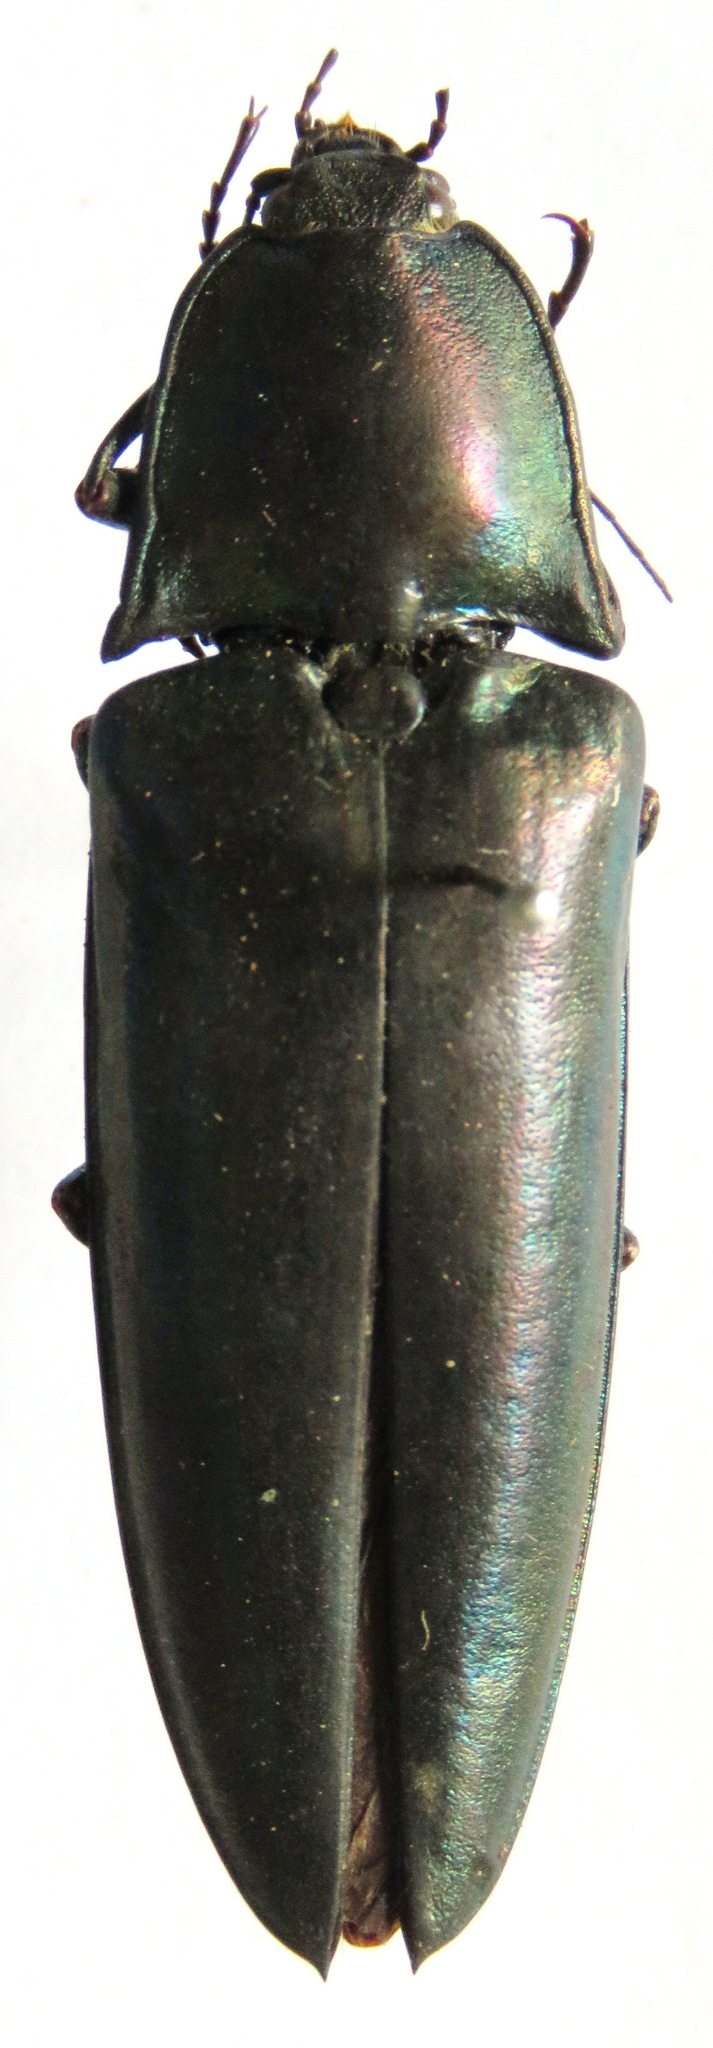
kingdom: Animalia
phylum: Arthropoda
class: Insecta
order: Coleoptera
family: Elateridae
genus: Campsosternus
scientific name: Campsosternus auratus
